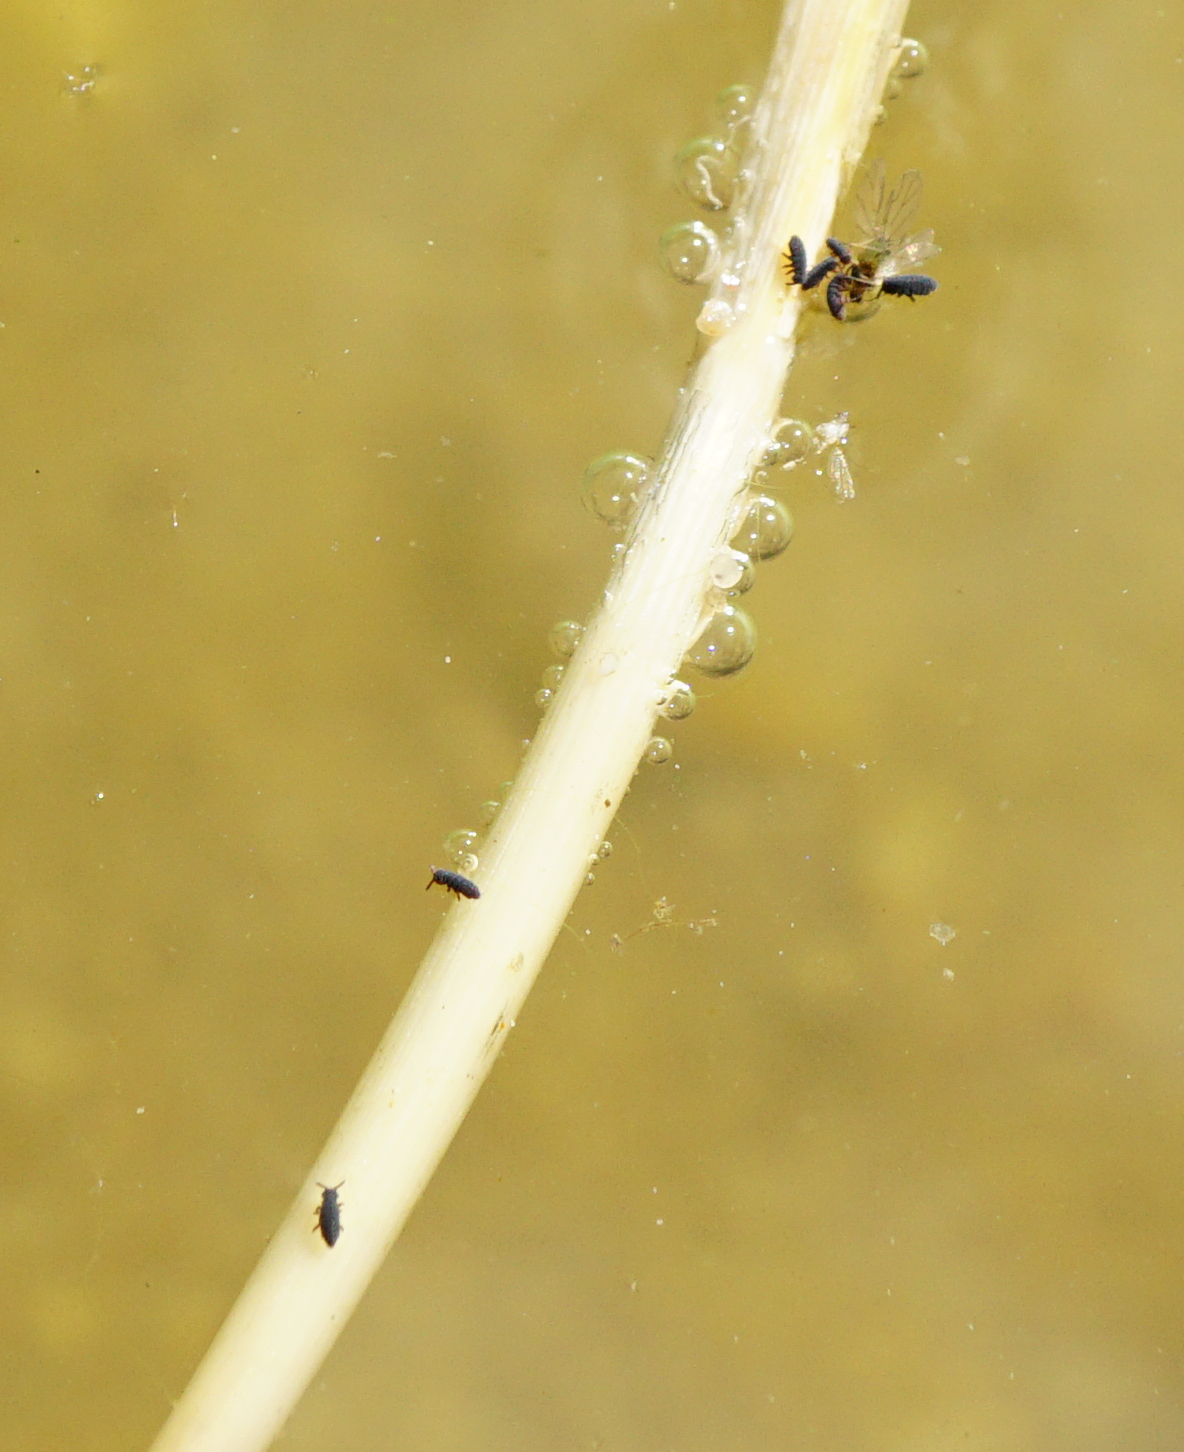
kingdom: Animalia
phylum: Arthropoda
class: Collembola
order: Poduromorpha
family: Poduridae
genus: Podura
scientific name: Podura aquatica
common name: Water springtail
